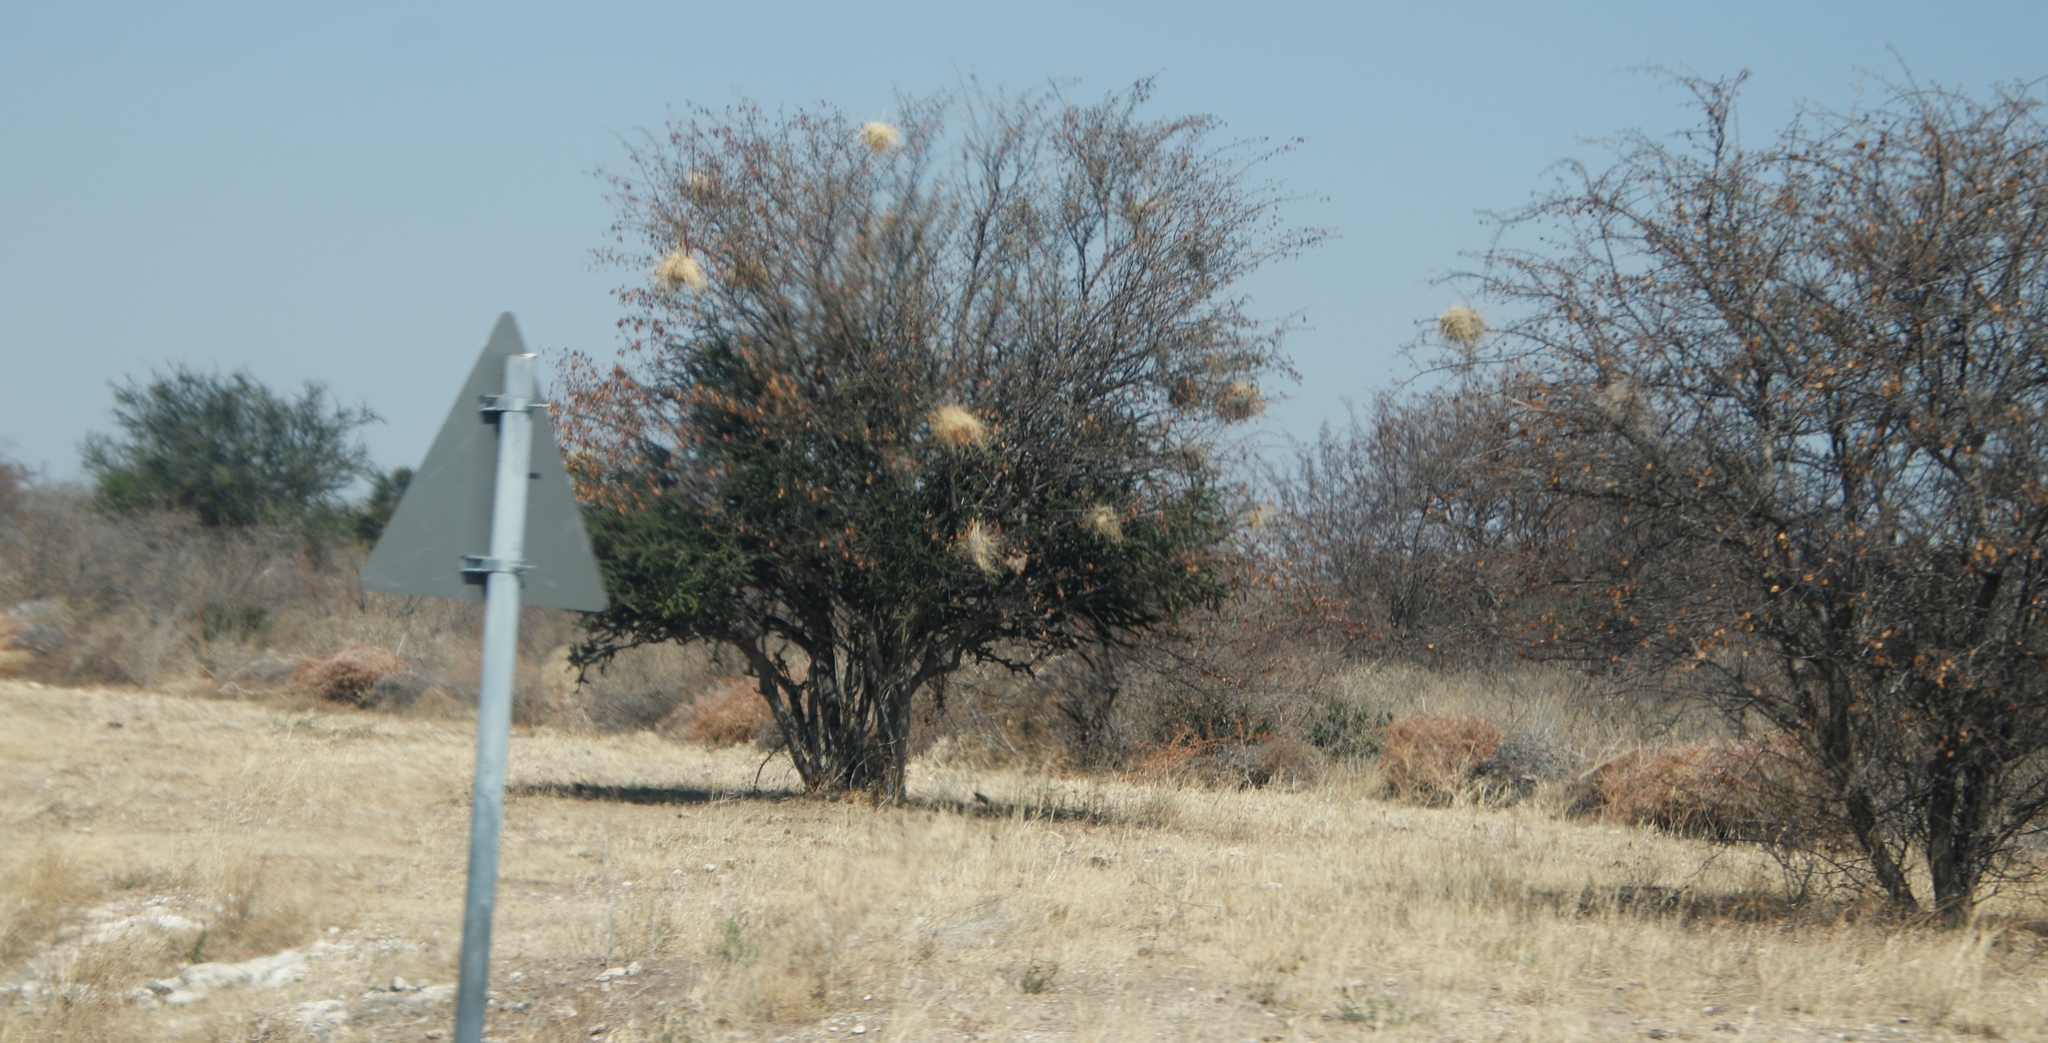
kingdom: Animalia
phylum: Chordata
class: Aves
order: Passeriformes
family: Passeridae
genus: Plocepasser
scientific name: Plocepasser mahali
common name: White-browed sparrow-weaver
